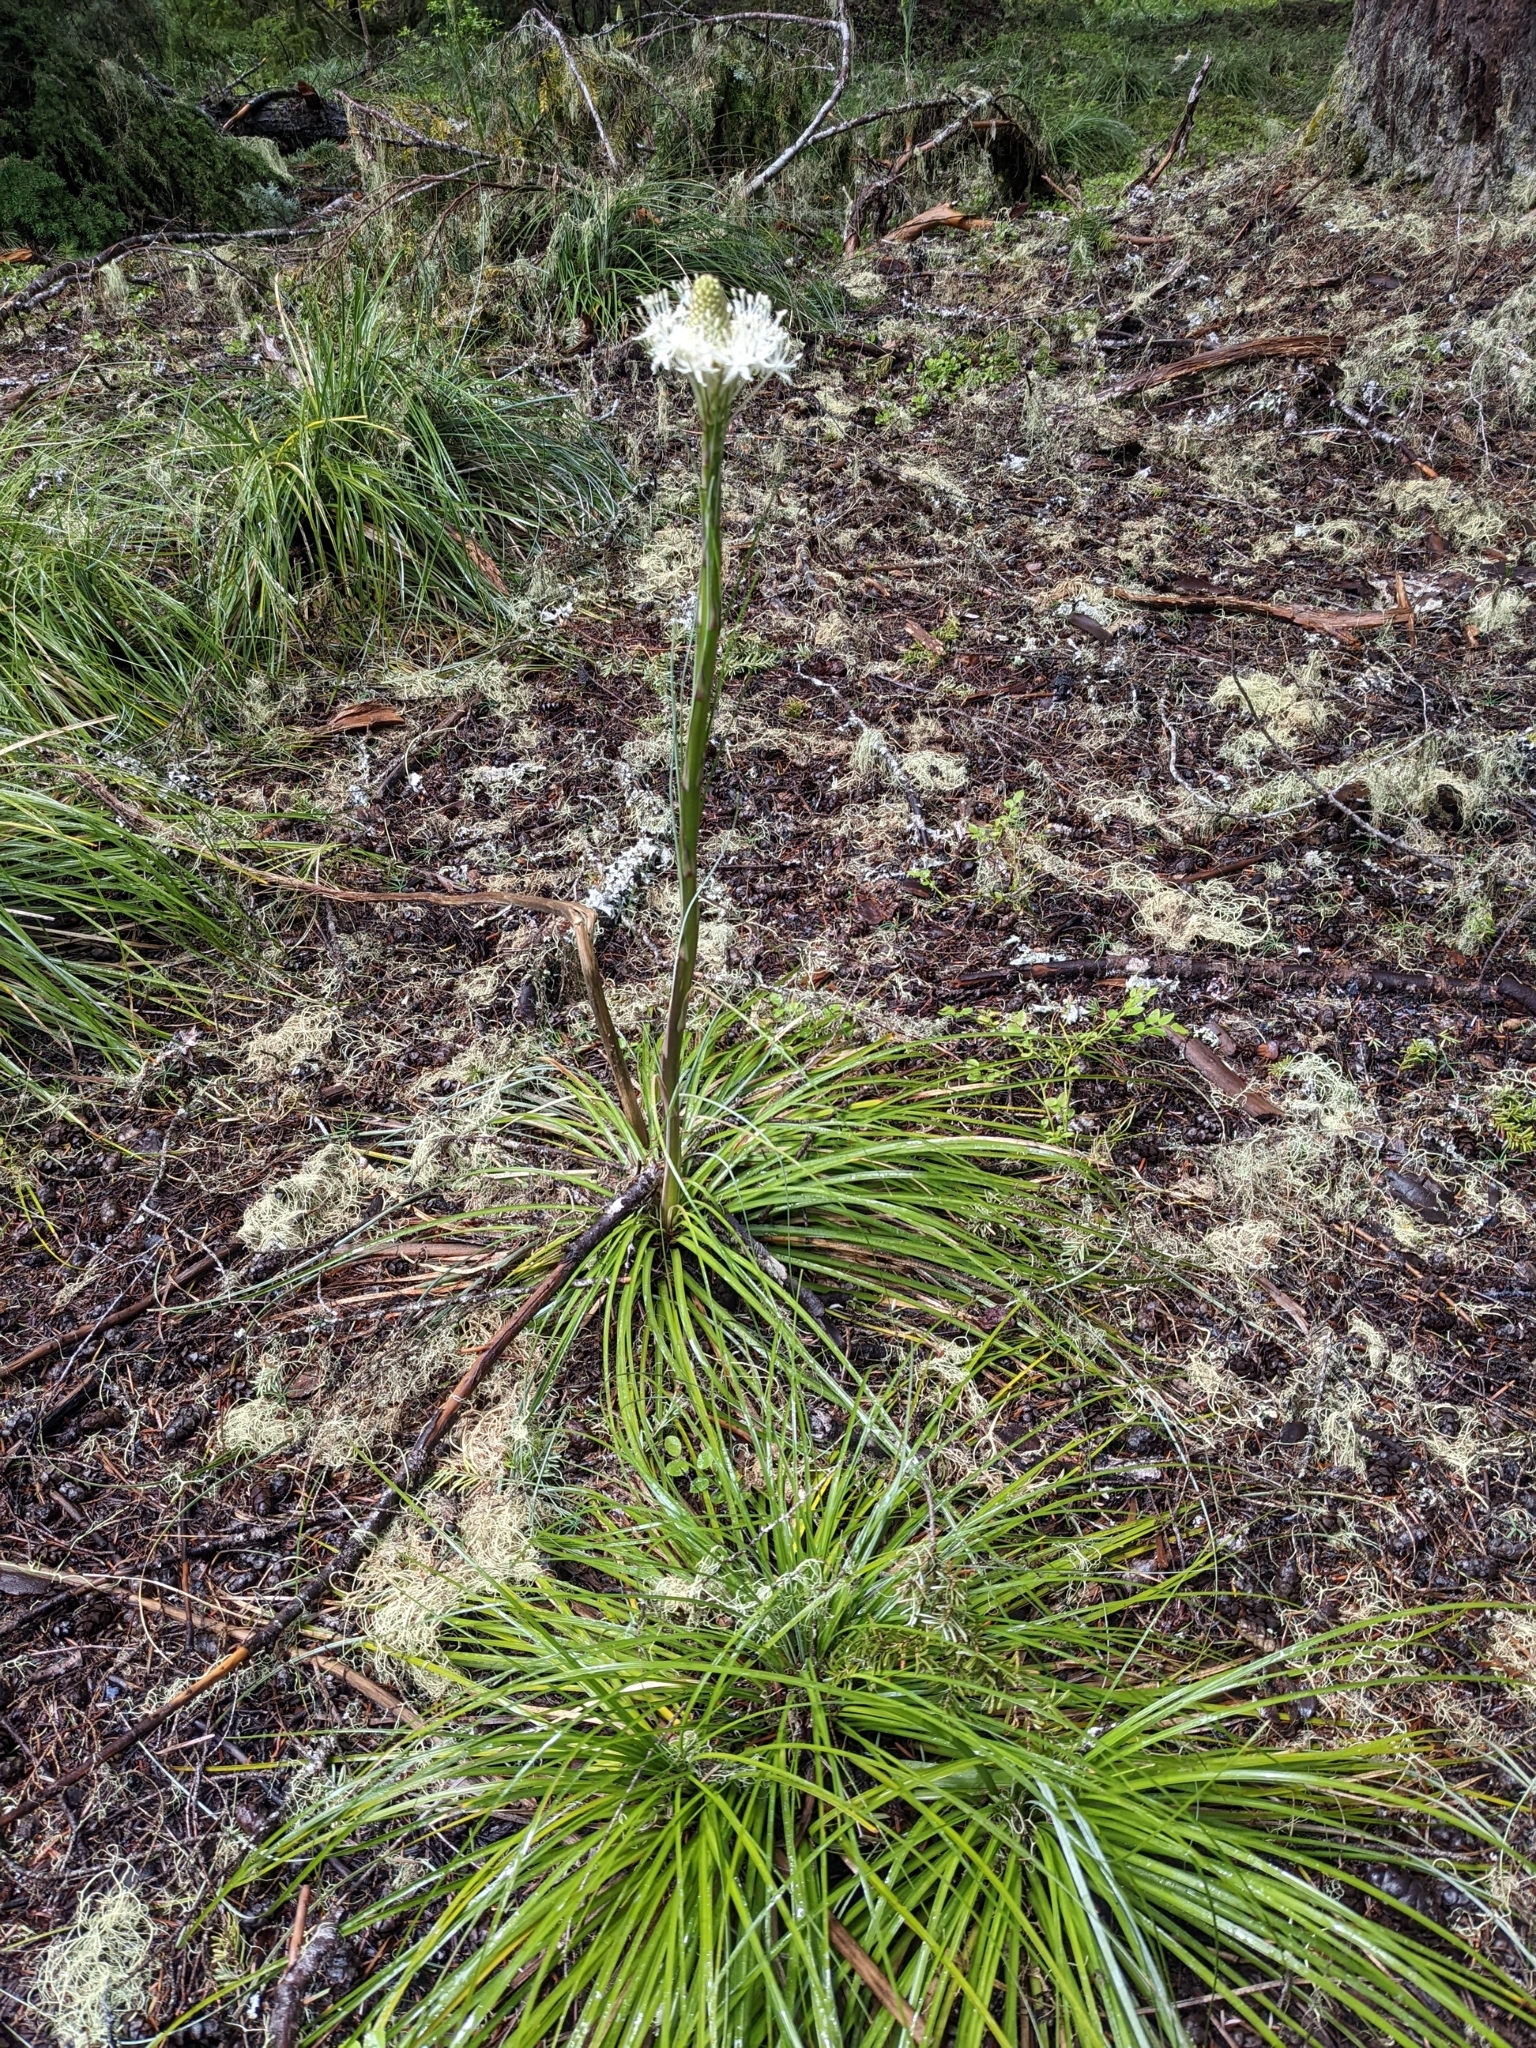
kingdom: Plantae
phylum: Tracheophyta
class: Liliopsida
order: Liliales
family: Melanthiaceae
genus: Xerophyllum
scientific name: Xerophyllum tenax
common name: Bear-grass
